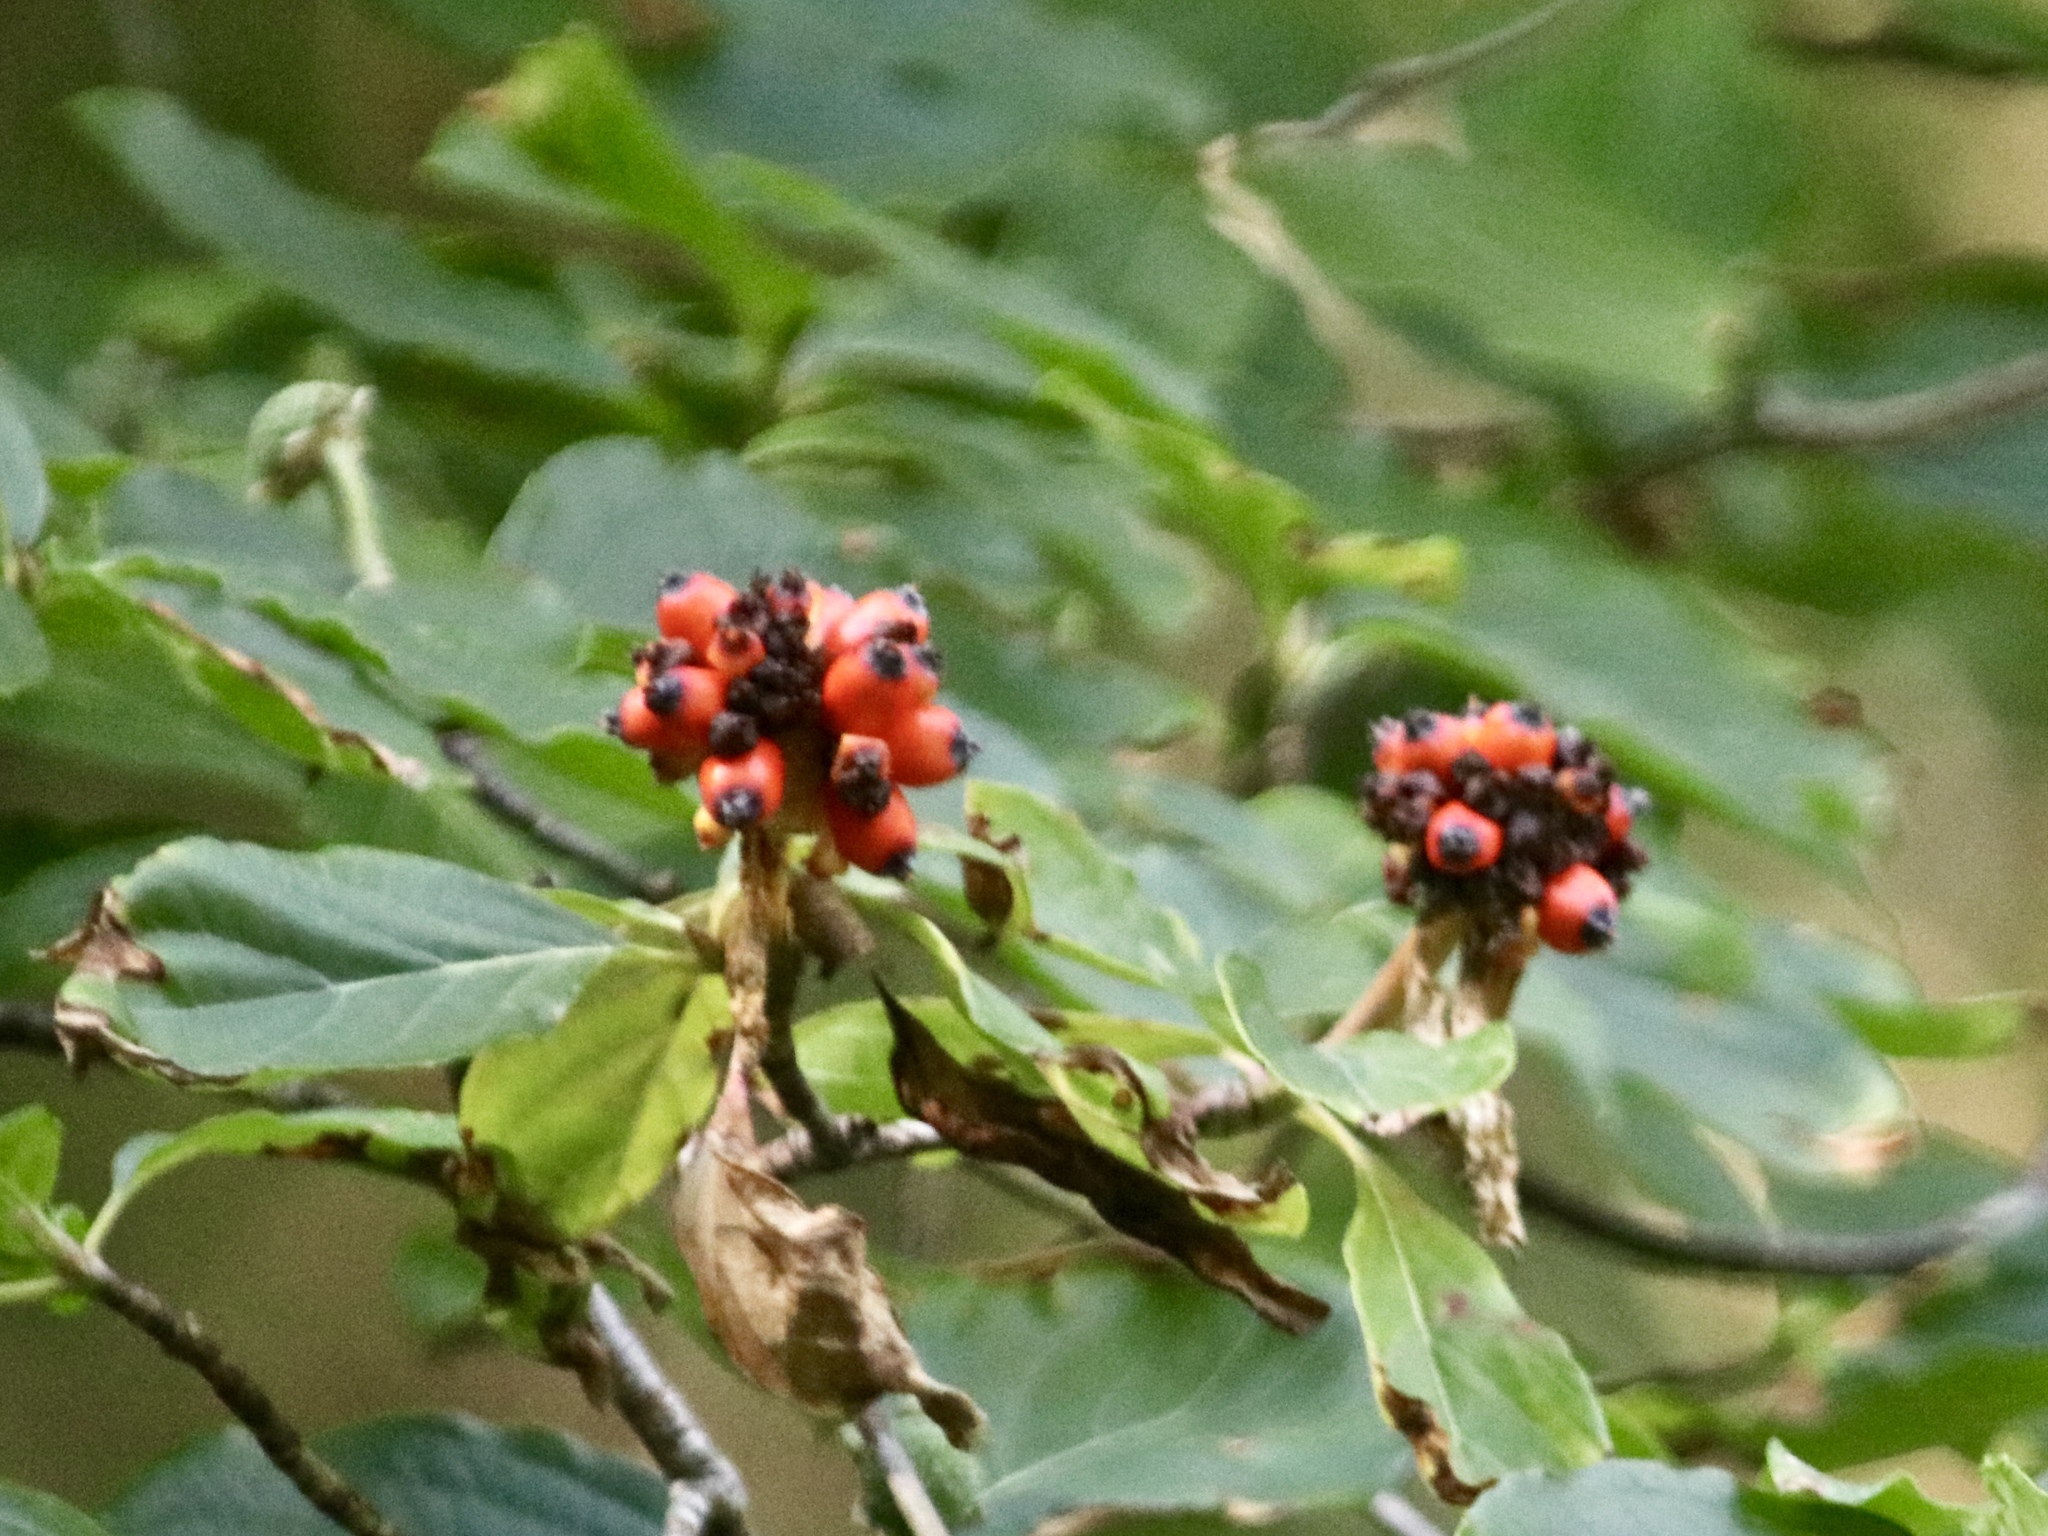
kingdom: Plantae
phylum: Tracheophyta
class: Magnoliopsida
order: Cornales
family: Cornaceae
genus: Cornus
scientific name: Cornus nuttallii
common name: Pacific dogwood
